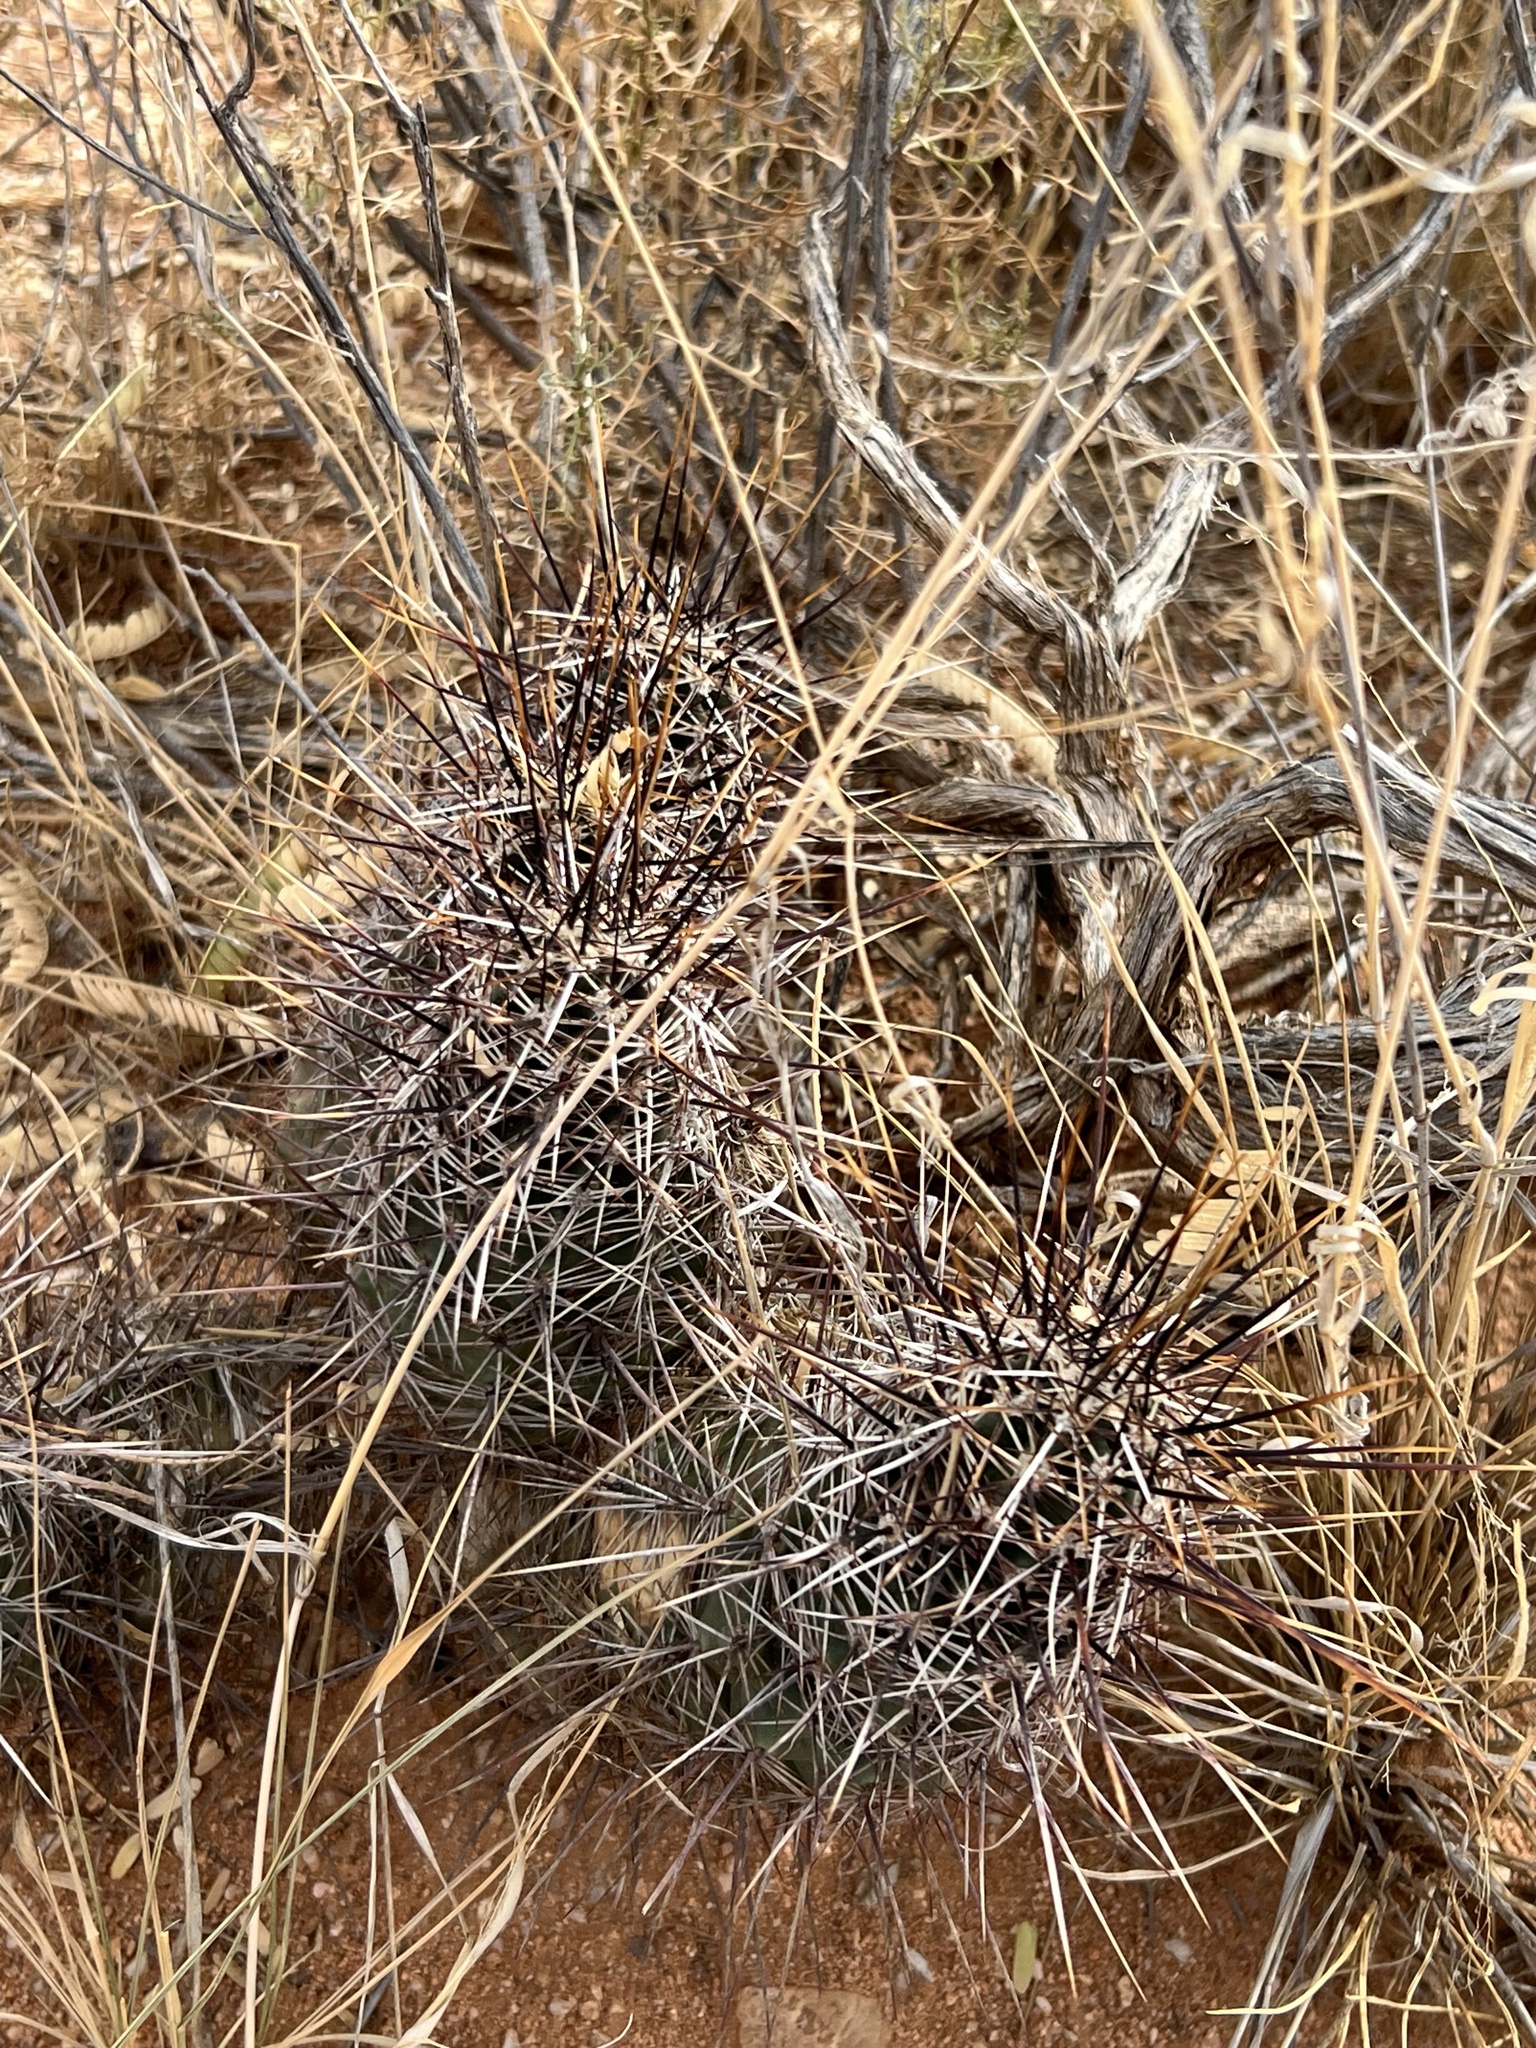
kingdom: Plantae
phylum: Tracheophyta
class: Magnoliopsida
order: Caryophyllales
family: Cactaceae
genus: Echinocereus
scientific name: Echinocereus fasciculatus
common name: Bundle hedgehog
